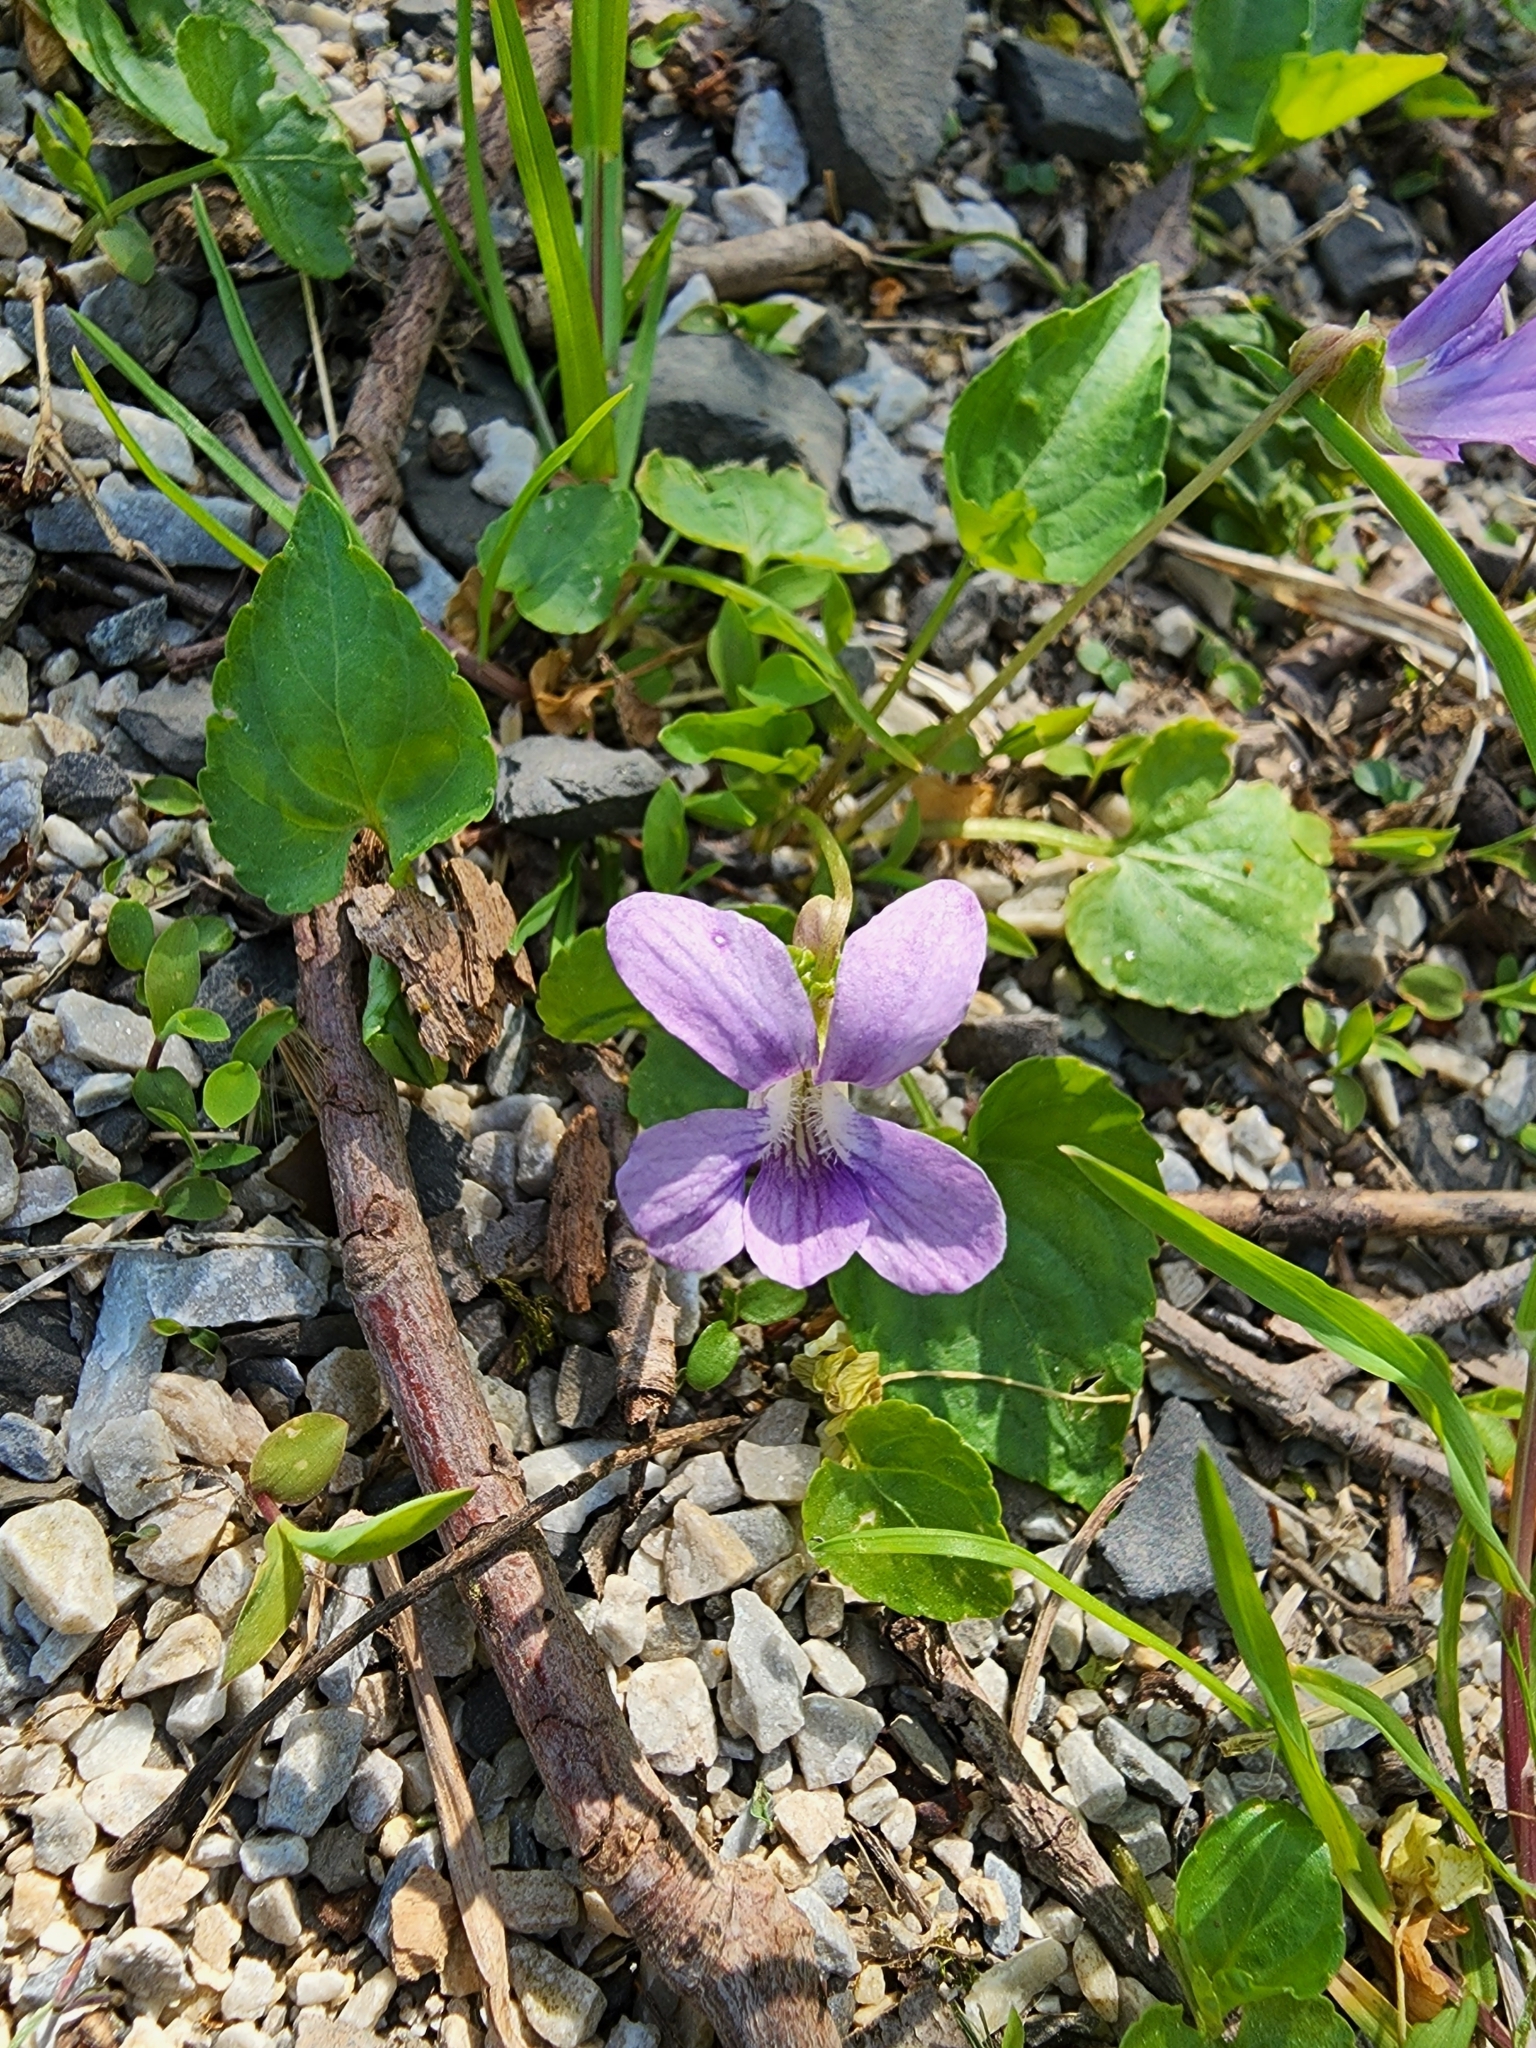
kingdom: Plantae
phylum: Tracheophyta
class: Magnoliopsida
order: Malpighiales
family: Violaceae
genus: Viola
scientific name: Viola sororia
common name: Dooryard violet
